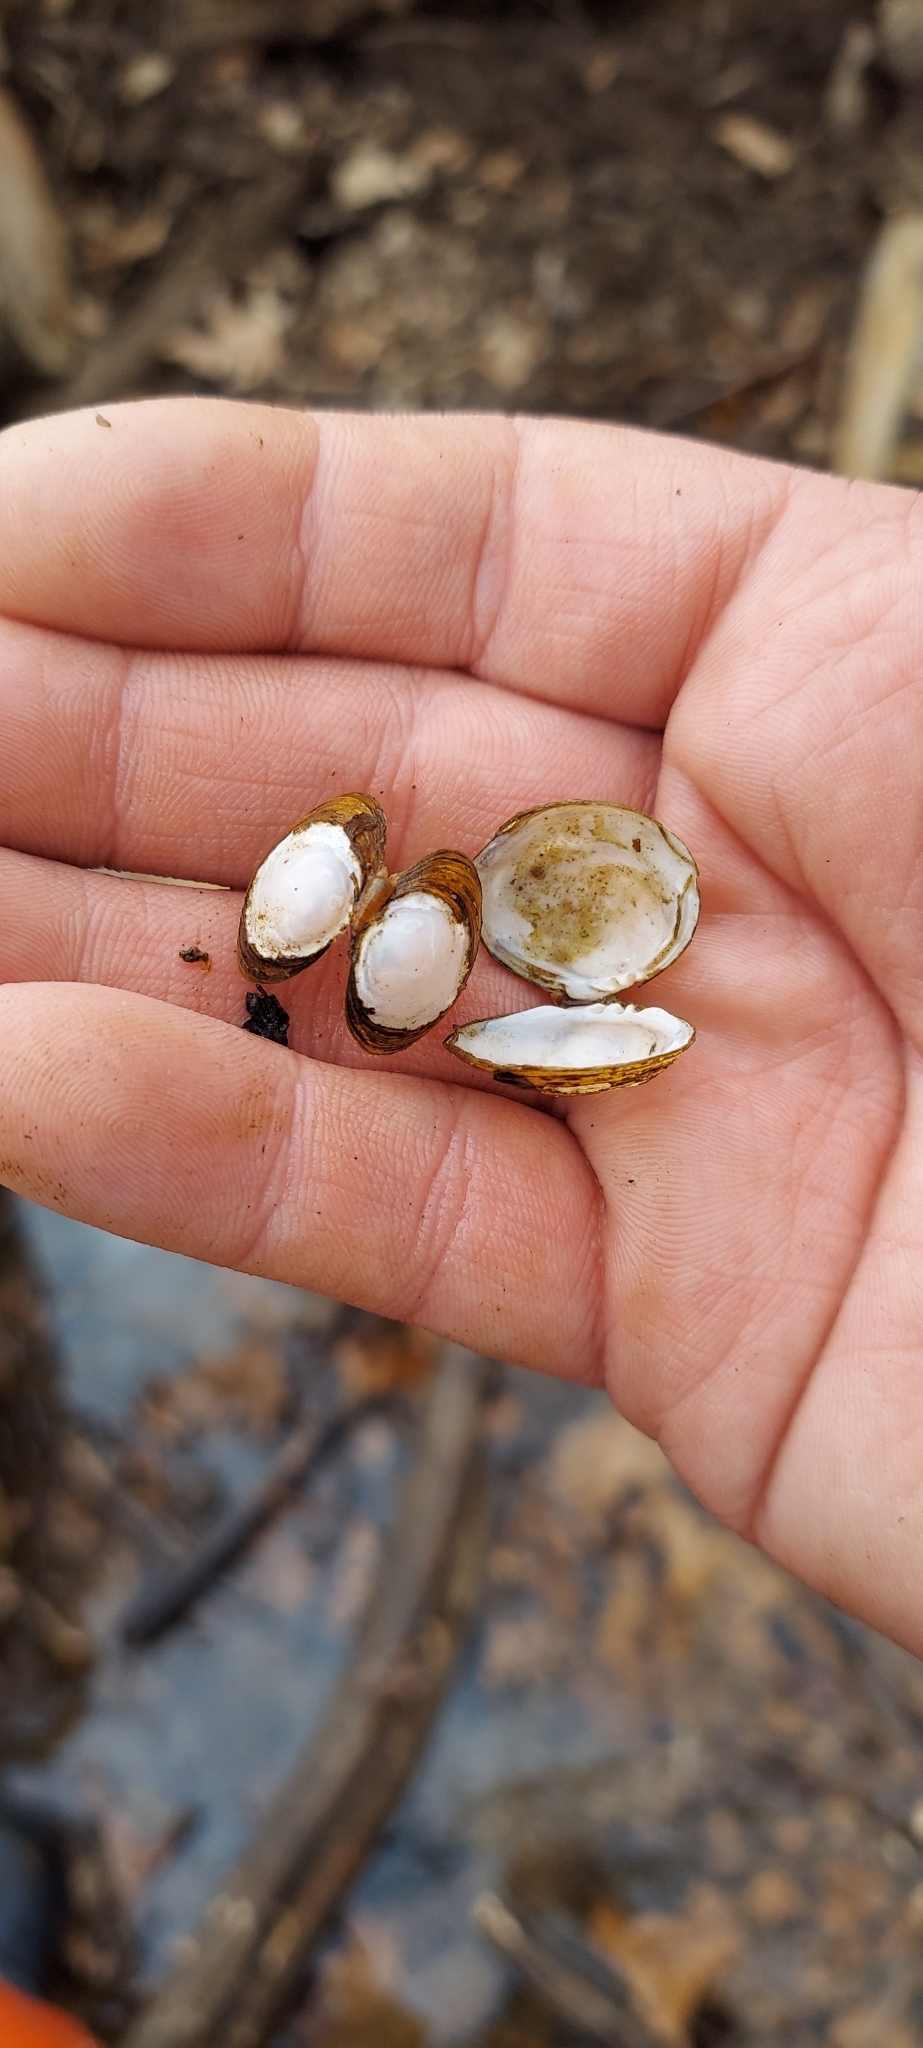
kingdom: Animalia
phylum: Mollusca
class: Bivalvia
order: Venerida
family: Cyrenidae
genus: Corbicula
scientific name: Corbicula fluminea
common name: Asian clam
